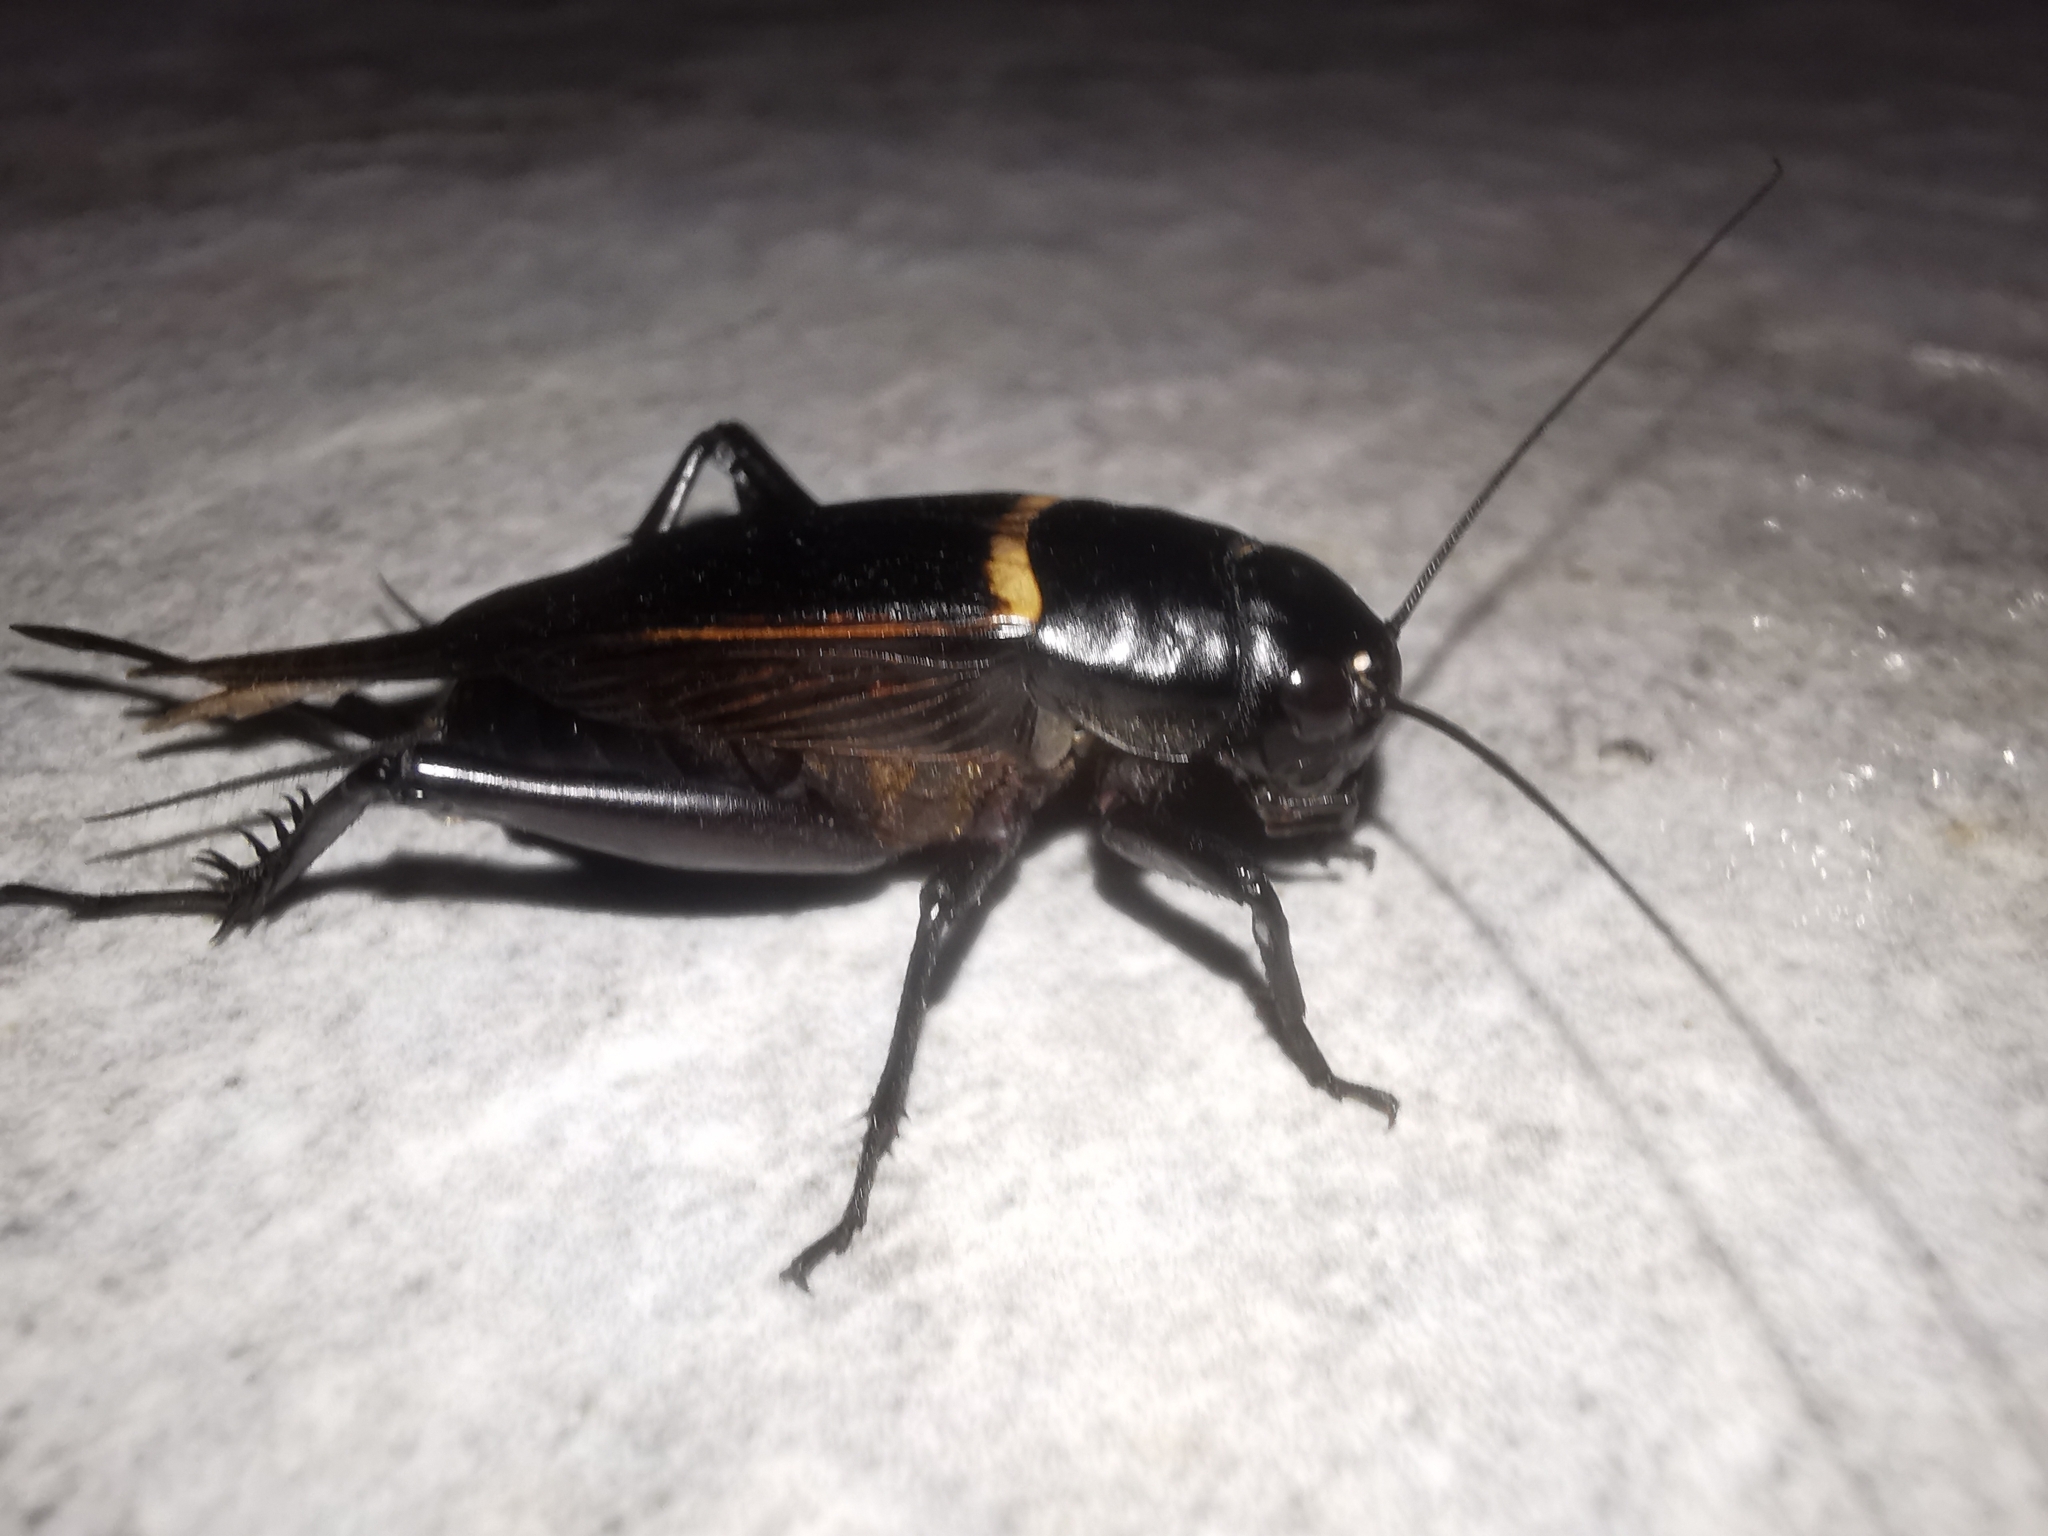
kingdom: Animalia
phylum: Arthropoda
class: Insecta
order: Orthoptera
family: Gryllidae
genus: Gryllus
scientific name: Gryllus bimaculatus
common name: Two-spotted cricket
